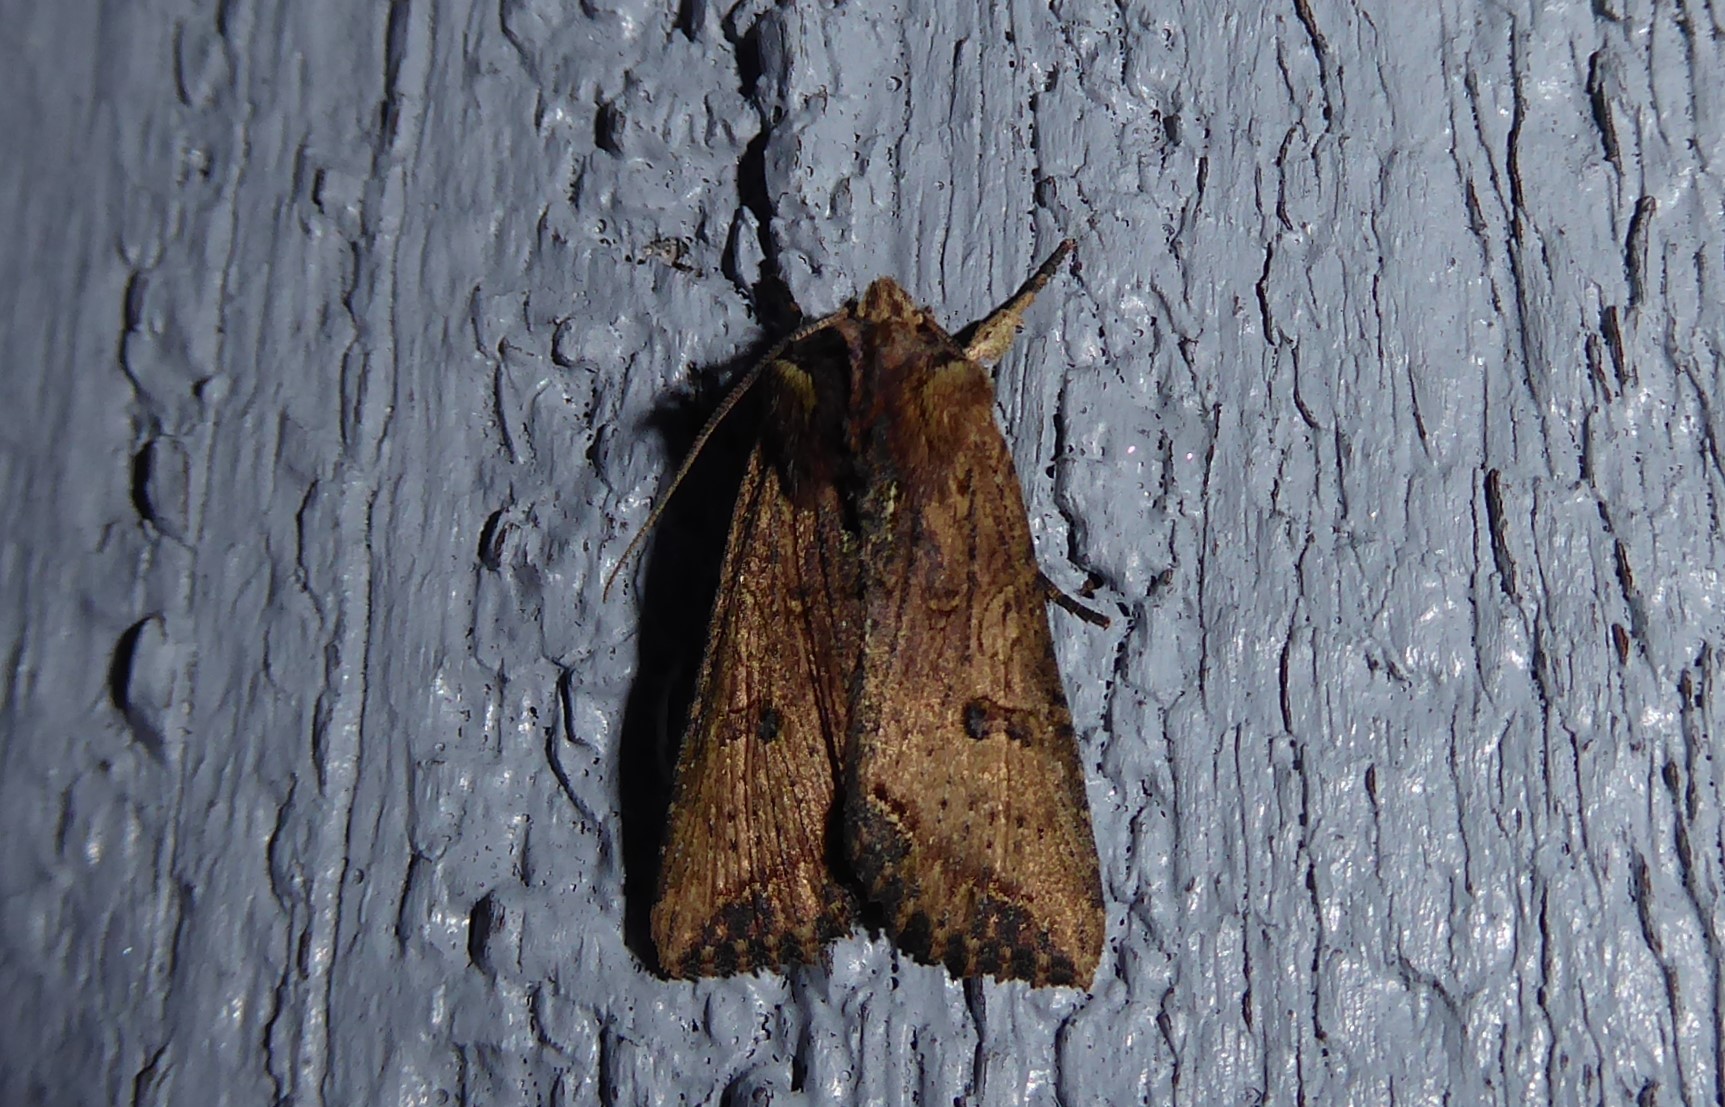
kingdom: Animalia
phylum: Arthropoda
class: Insecta
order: Lepidoptera
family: Noctuidae
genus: Meterana
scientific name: Meterana coeleno
